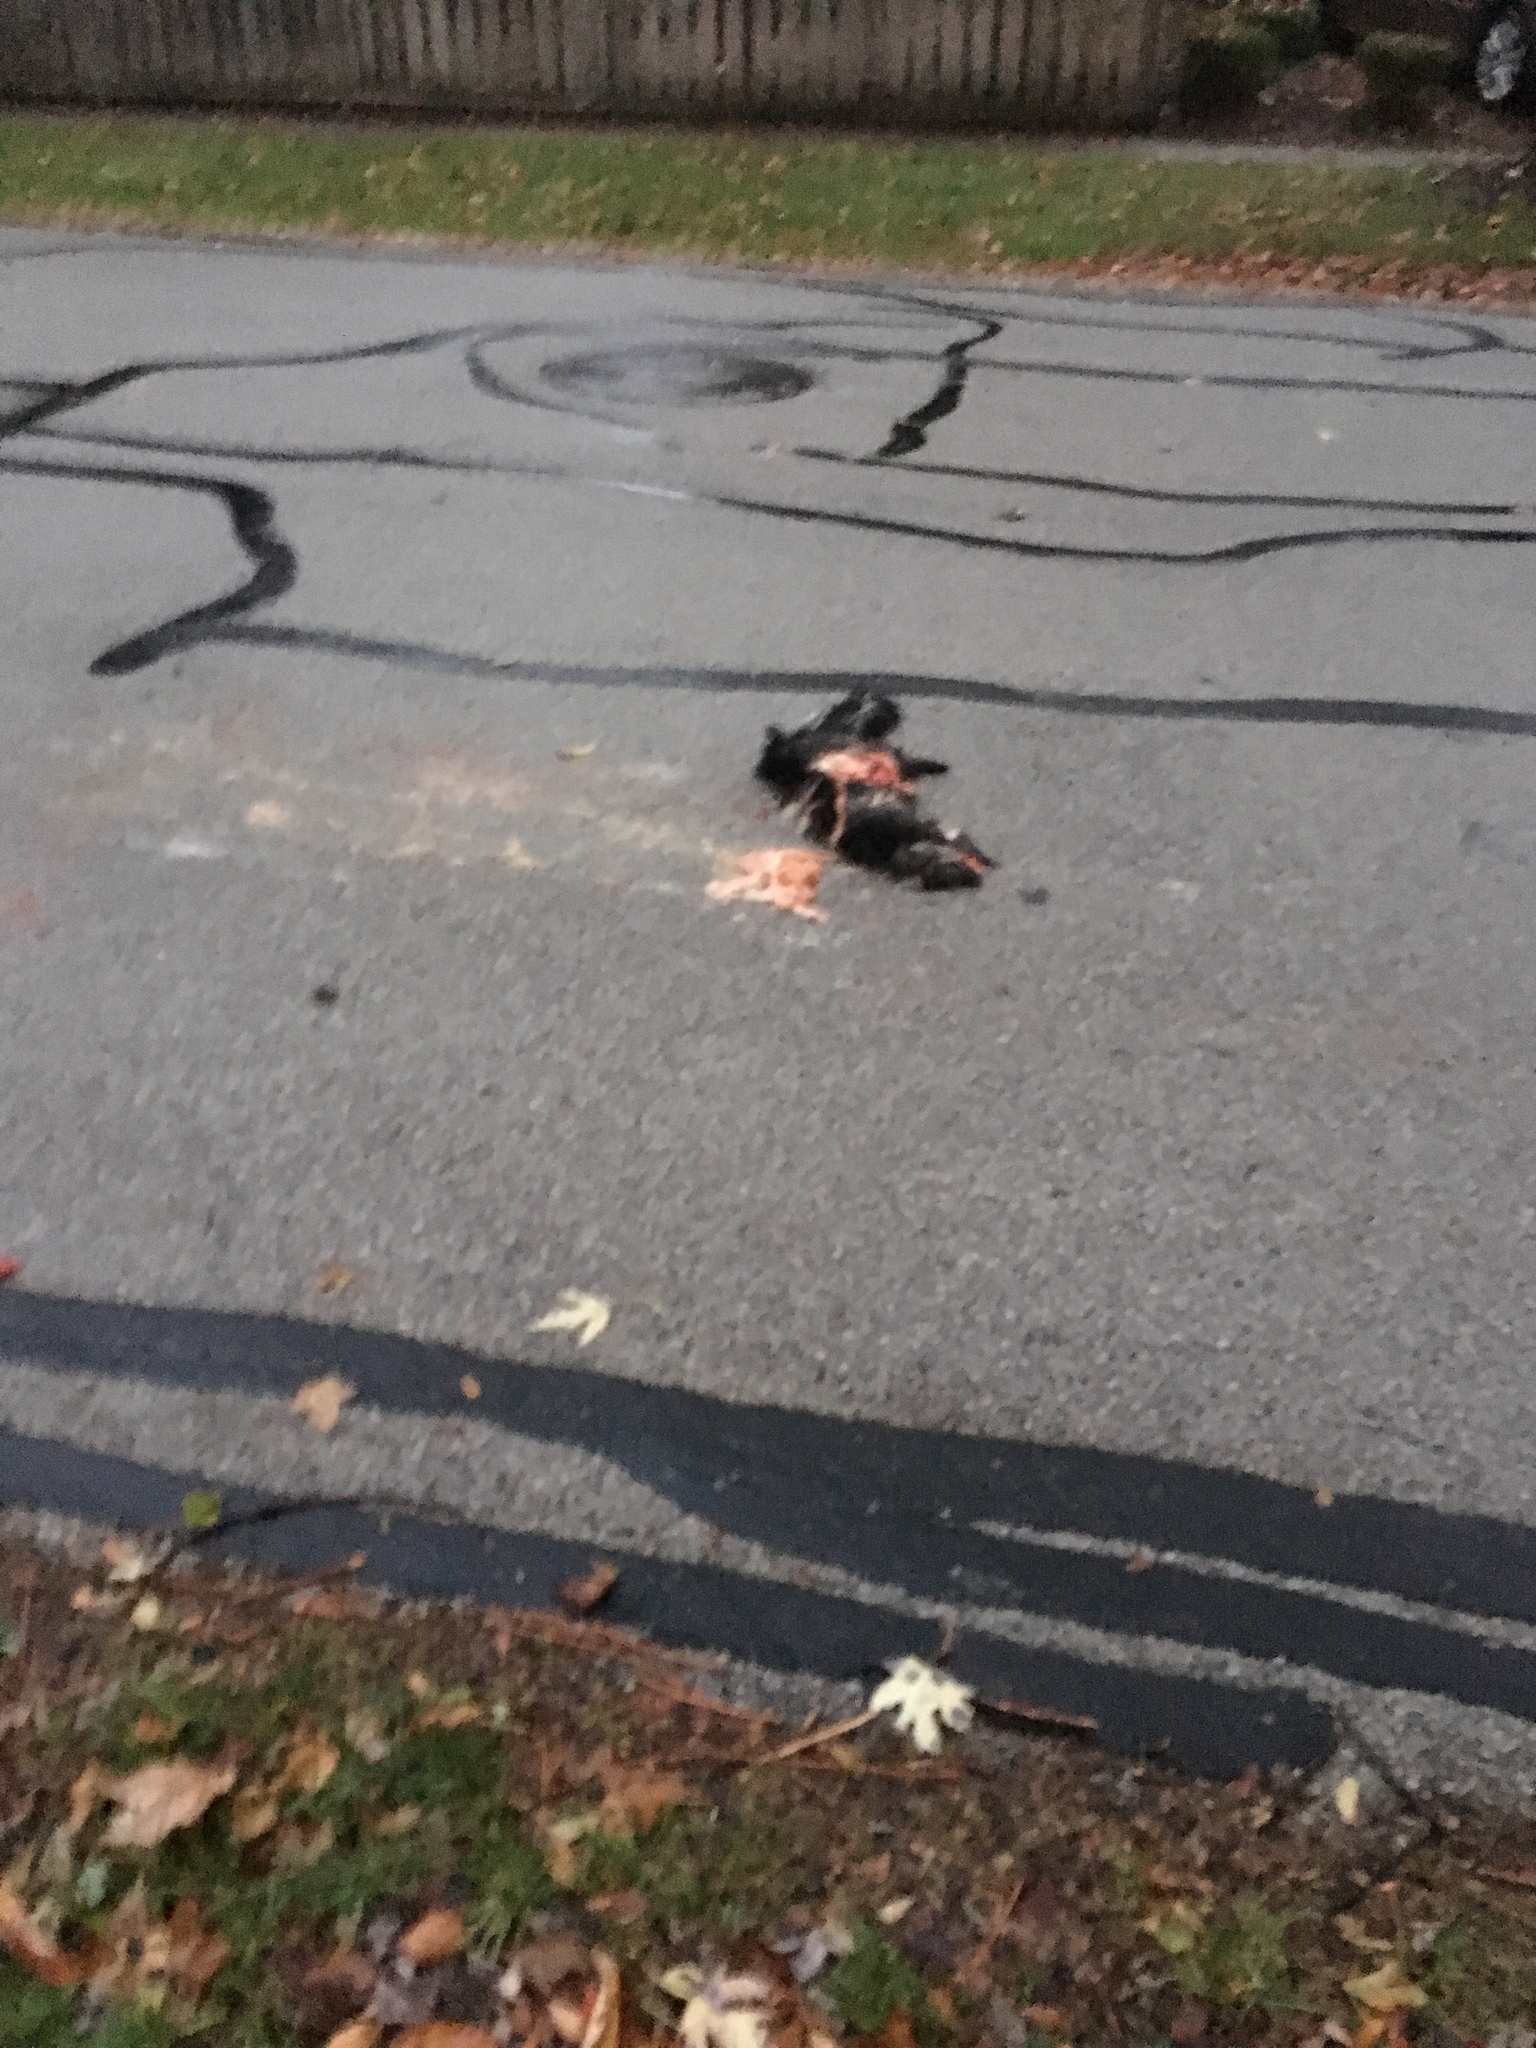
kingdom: Animalia
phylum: Chordata
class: Mammalia
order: Carnivora
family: Mephitidae
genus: Mephitis
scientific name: Mephitis mephitis
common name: Striped skunk
